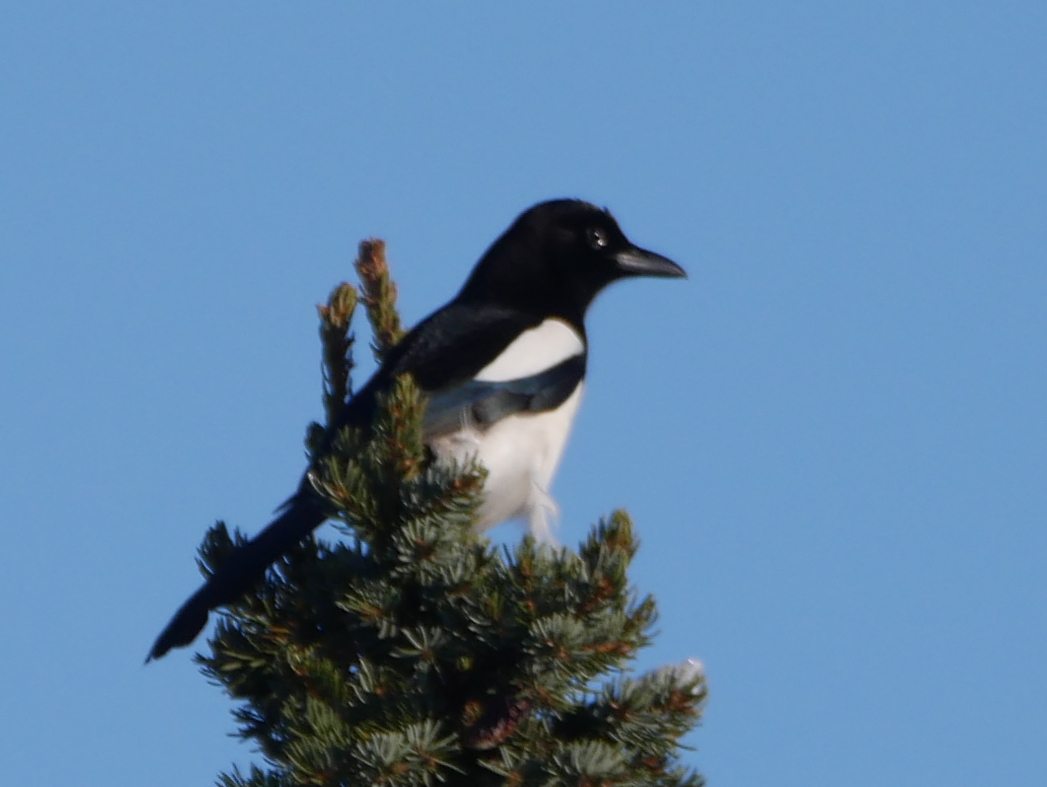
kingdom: Animalia
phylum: Chordata
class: Aves
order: Passeriformes
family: Corvidae
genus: Pica
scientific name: Pica pica
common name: Eurasian magpie
